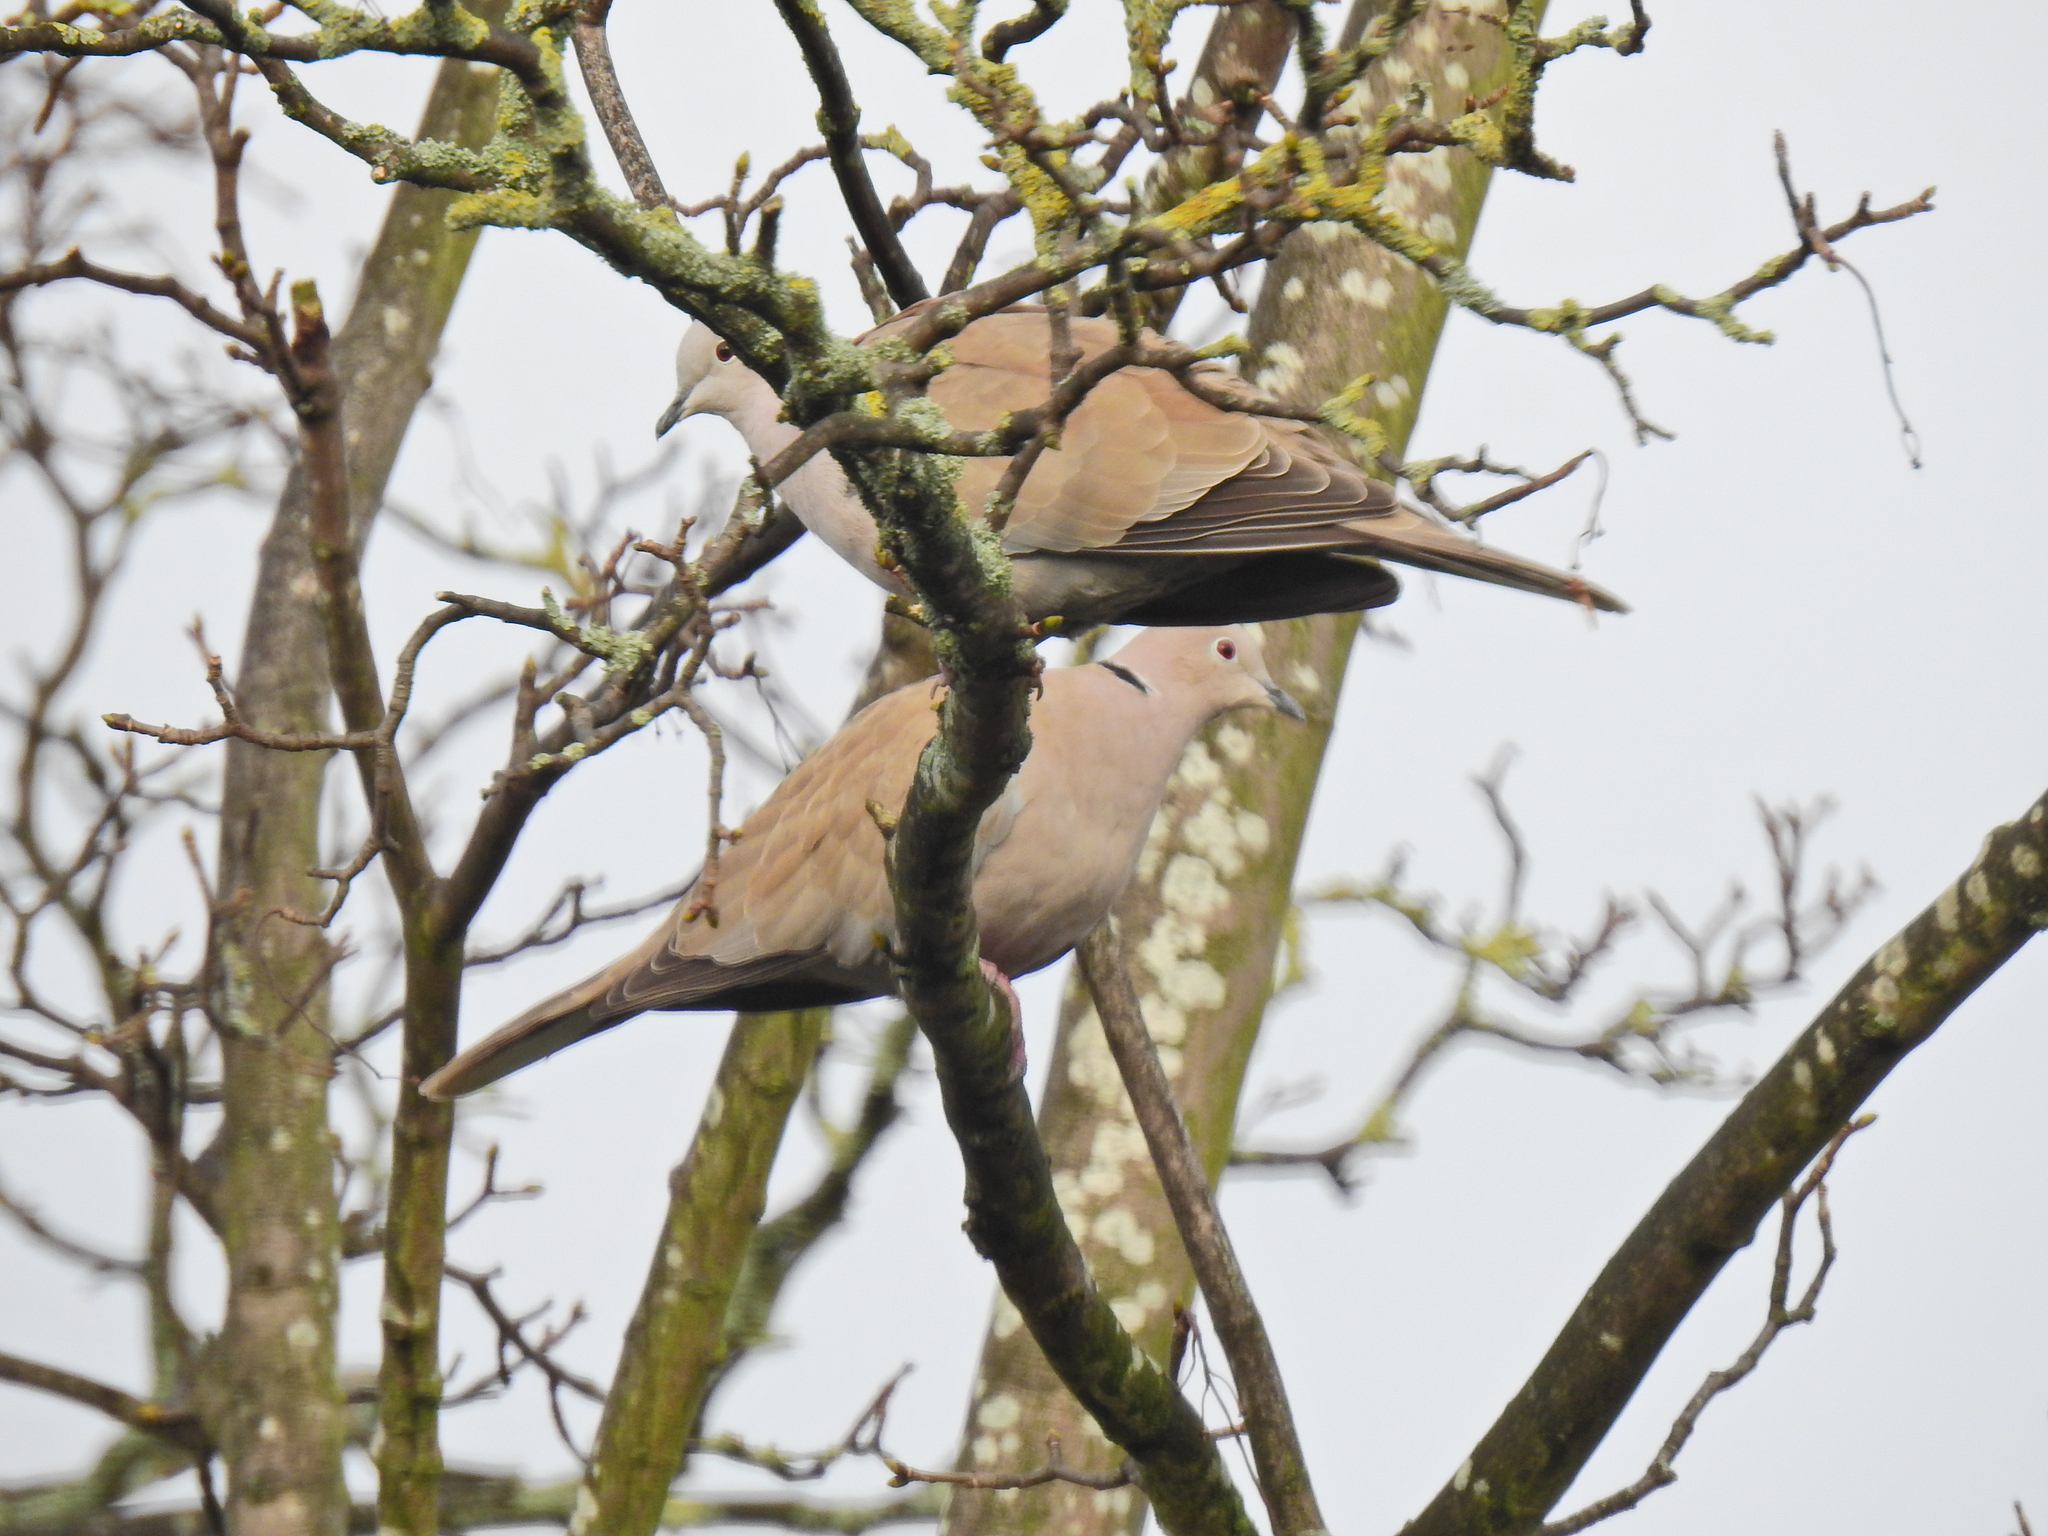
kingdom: Animalia
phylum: Chordata
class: Aves
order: Columbiformes
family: Columbidae
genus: Streptopelia
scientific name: Streptopelia decaocto
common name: Eurasian collared dove
